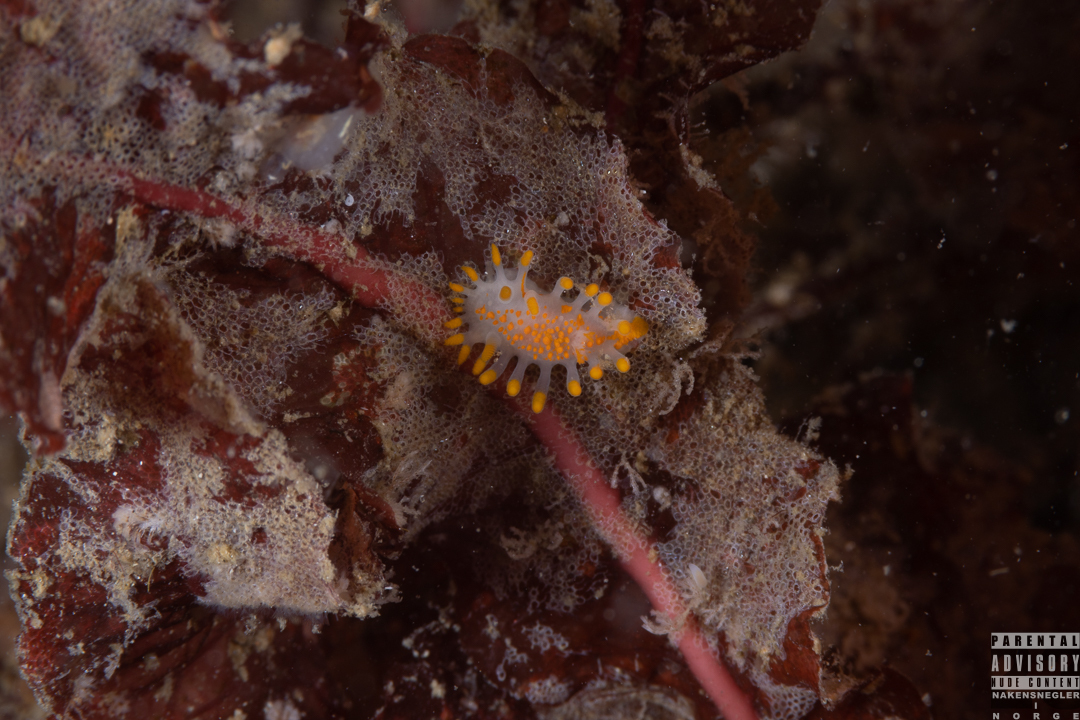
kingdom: Animalia
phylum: Mollusca
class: Gastropoda
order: Nudibranchia
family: Polyceridae
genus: Limacia
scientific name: Limacia clavigera
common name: Orange-clubbed sea slug
